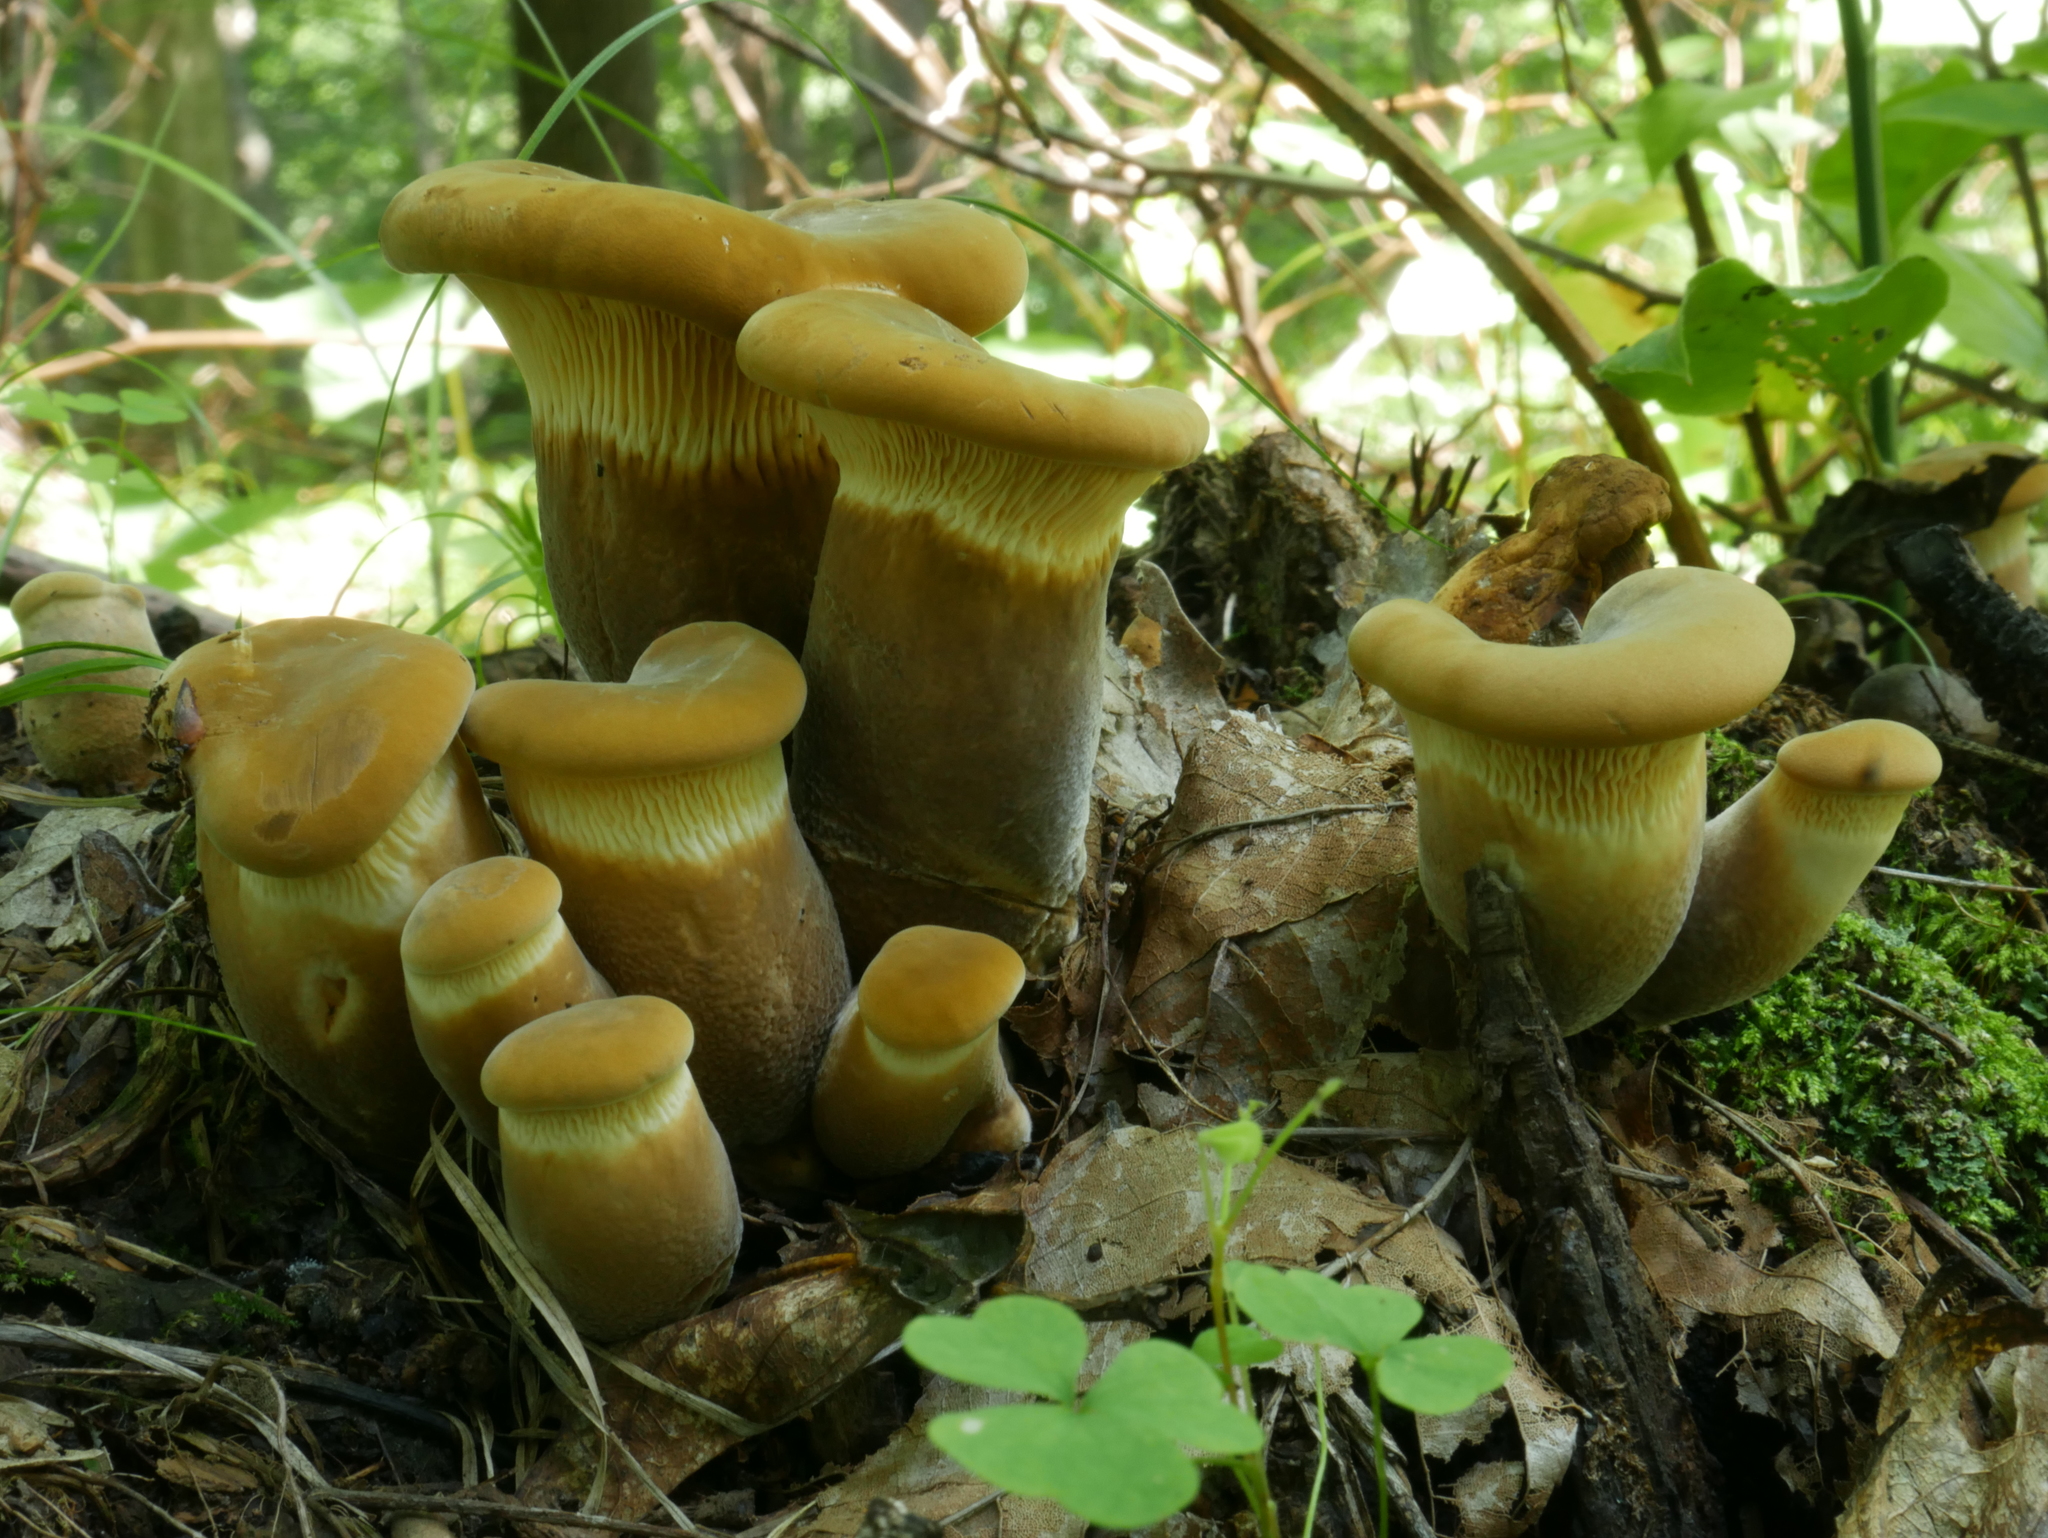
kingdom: Fungi
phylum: Basidiomycota
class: Agaricomycetes
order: Boletales
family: Tapinellaceae
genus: Tapinella
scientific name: Tapinella atrotomentosa
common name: Velvet rollrim
